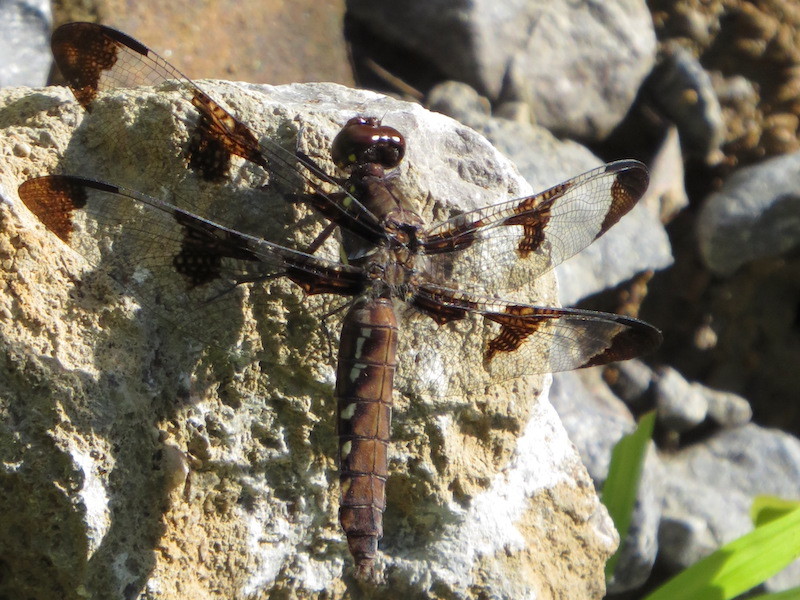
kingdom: Animalia
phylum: Arthropoda
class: Insecta
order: Odonata
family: Libellulidae
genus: Plathemis
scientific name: Plathemis lydia
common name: Common whitetail
